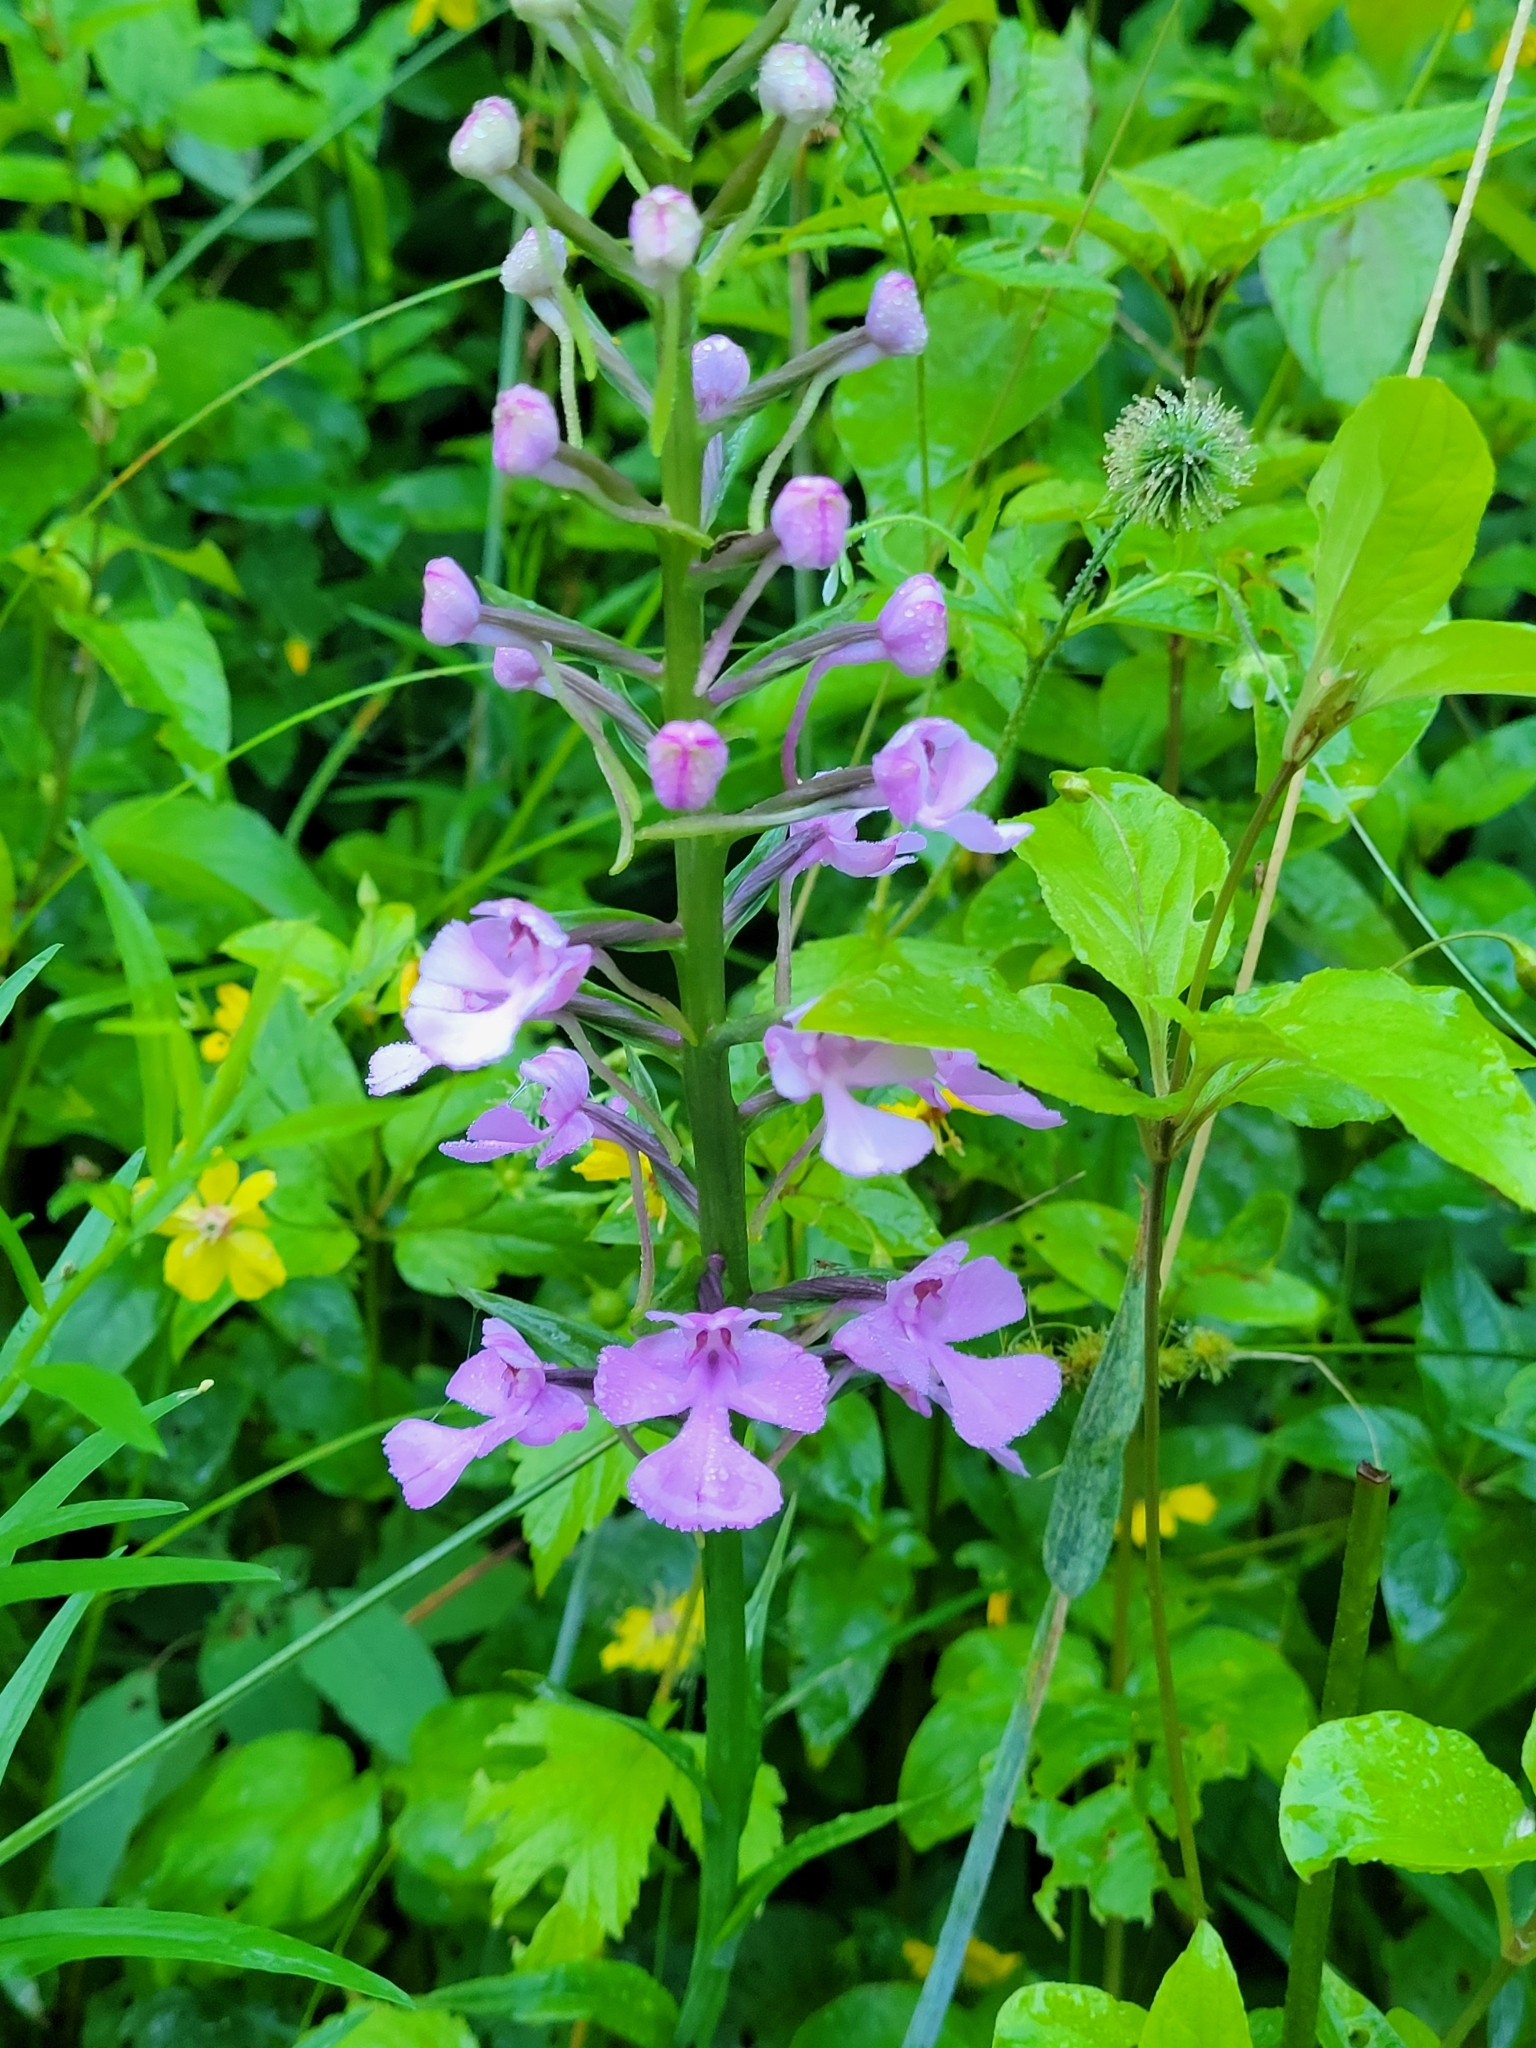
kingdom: Plantae
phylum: Tracheophyta
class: Liliopsida
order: Asparagales
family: Orchidaceae
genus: Platanthera
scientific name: Platanthera peramoena
